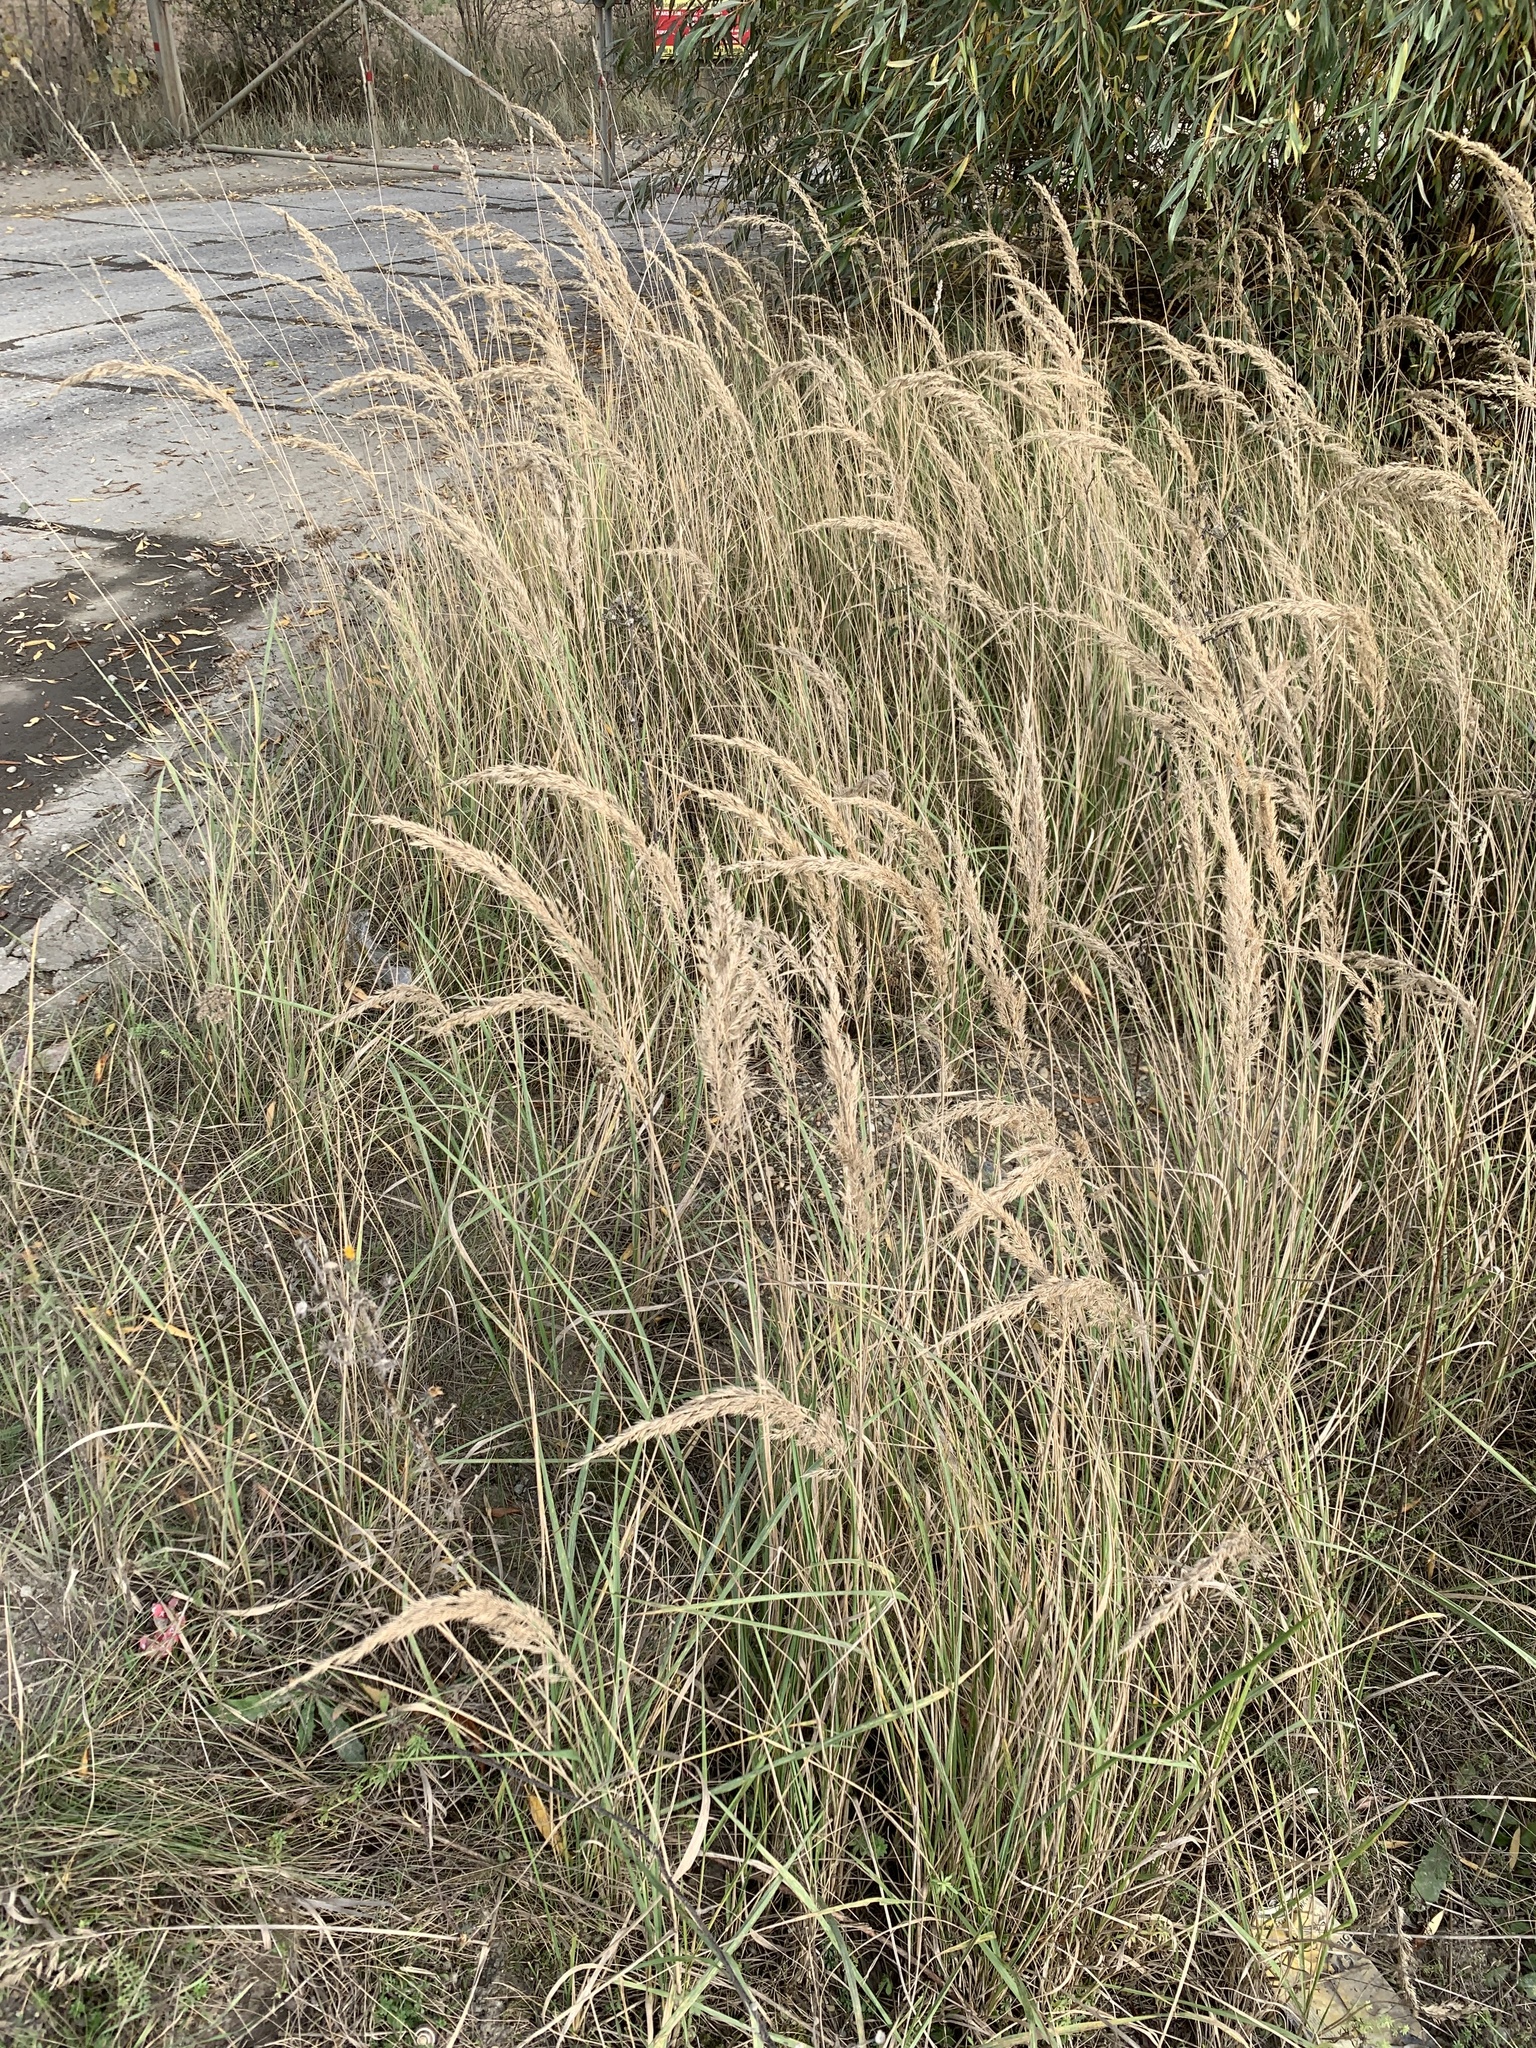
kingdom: Plantae
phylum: Tracheophyta
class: Liliopsida
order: Poales
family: Poaceae
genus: Calamagrostis
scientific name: Calamagrostis epigejos
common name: Wood small-reed
